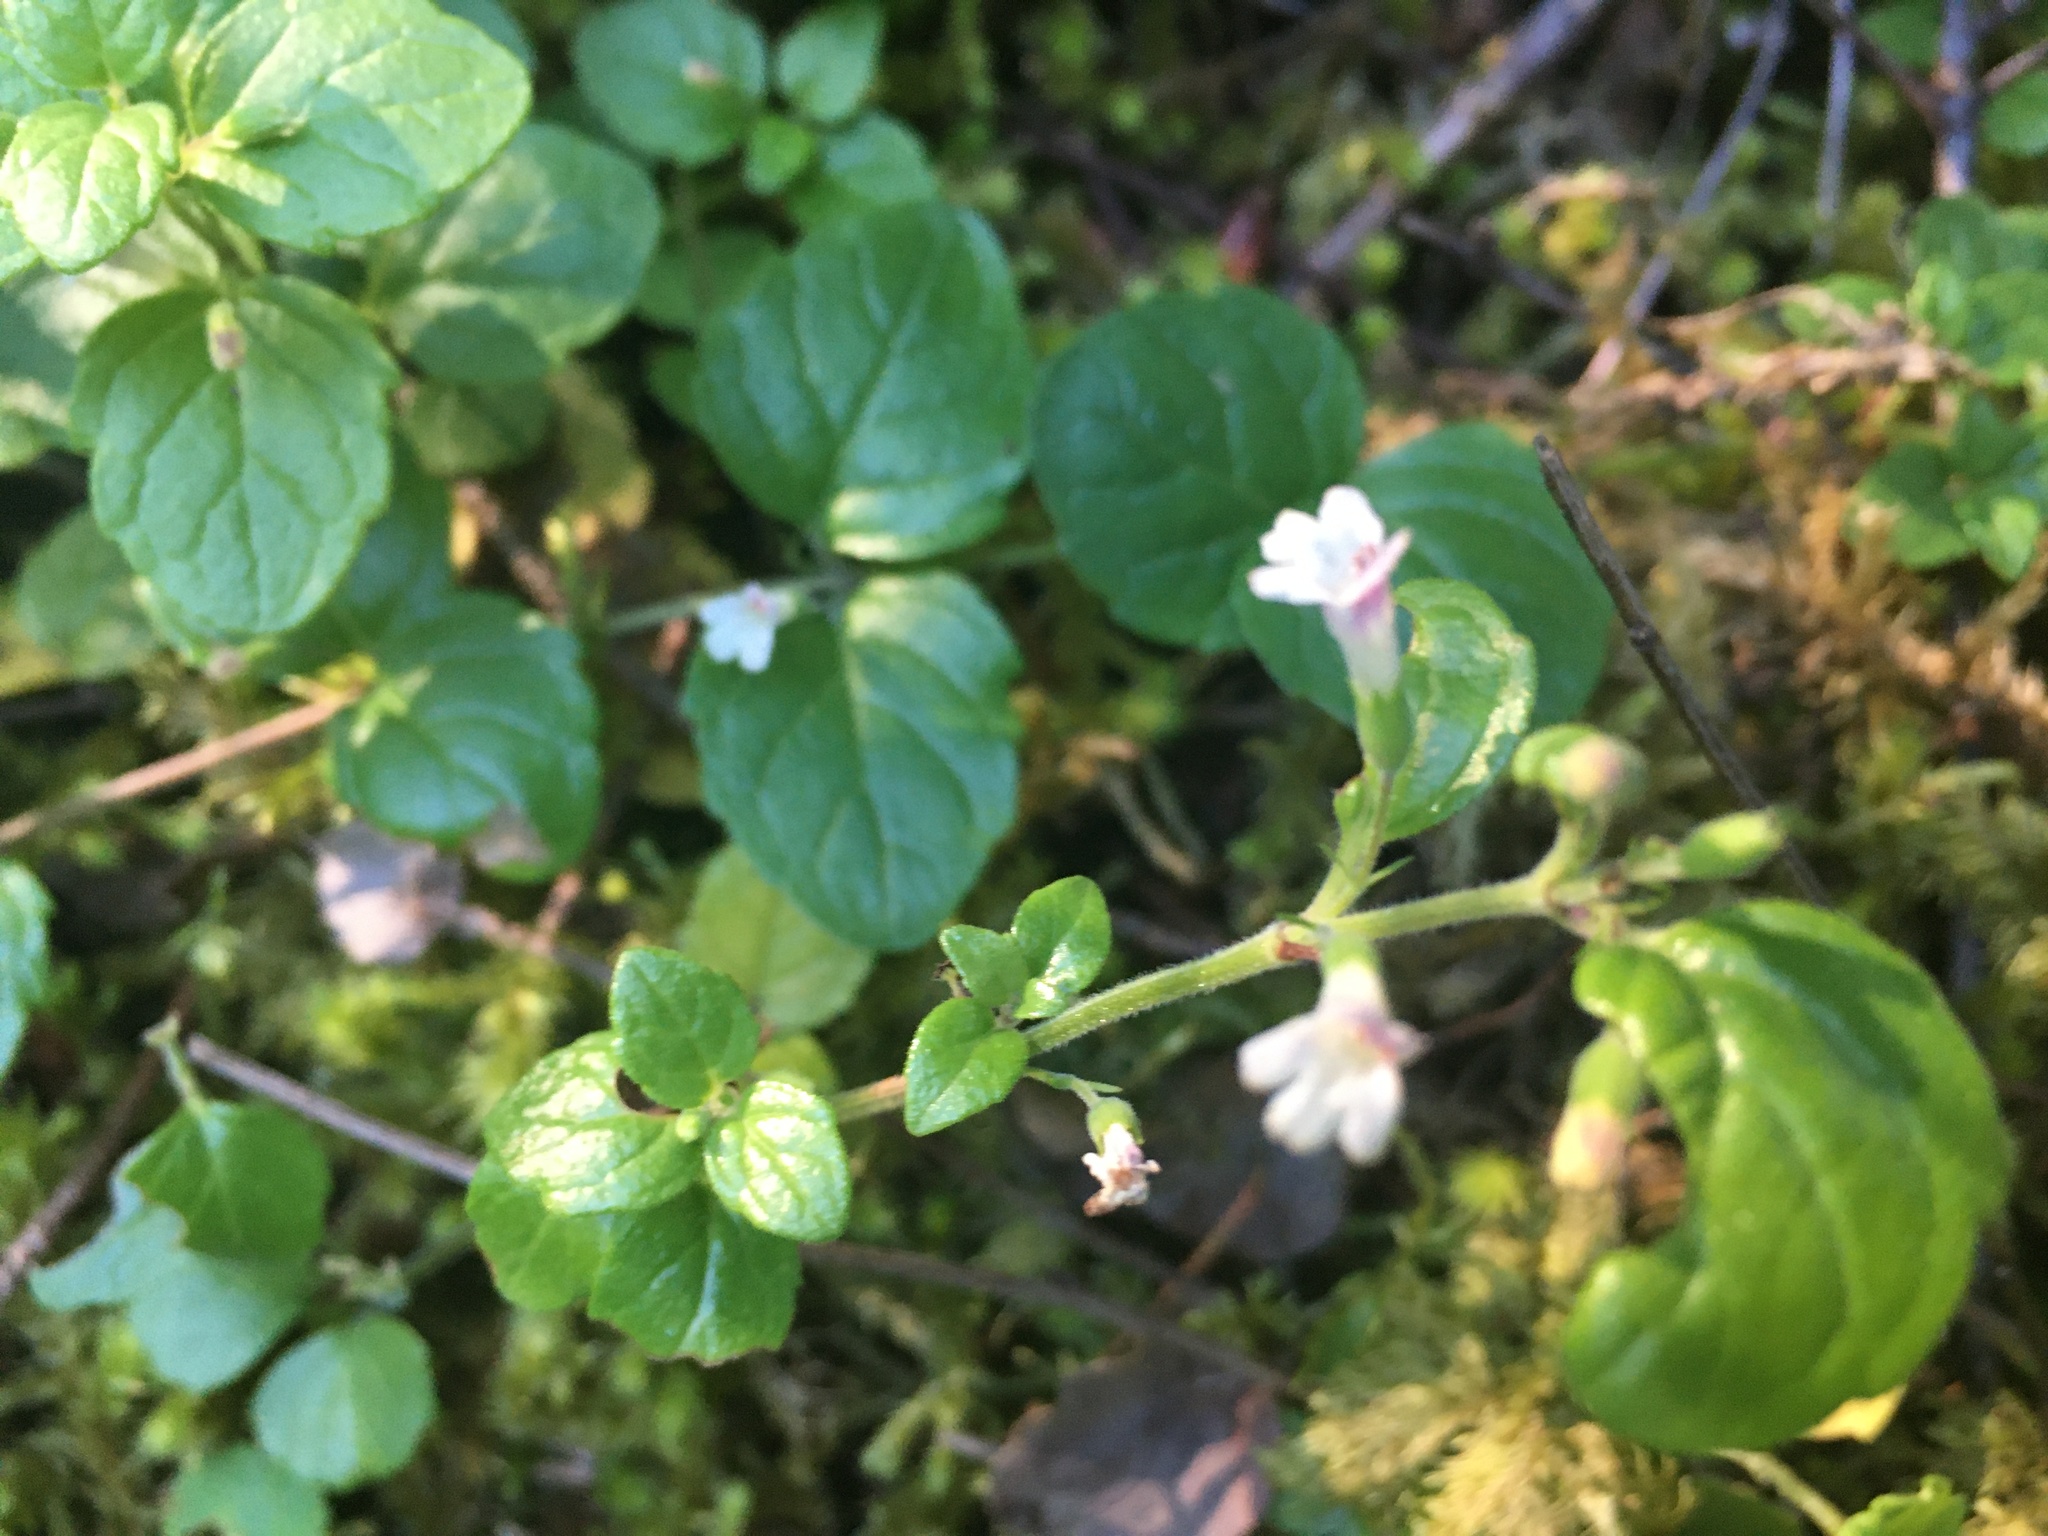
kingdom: Plantae
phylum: Tracheophyta
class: Magnoliopsida
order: Lamiales
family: Lamiaceae
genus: Micromeria
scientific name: Micromeria douglasii
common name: Yerba buena
